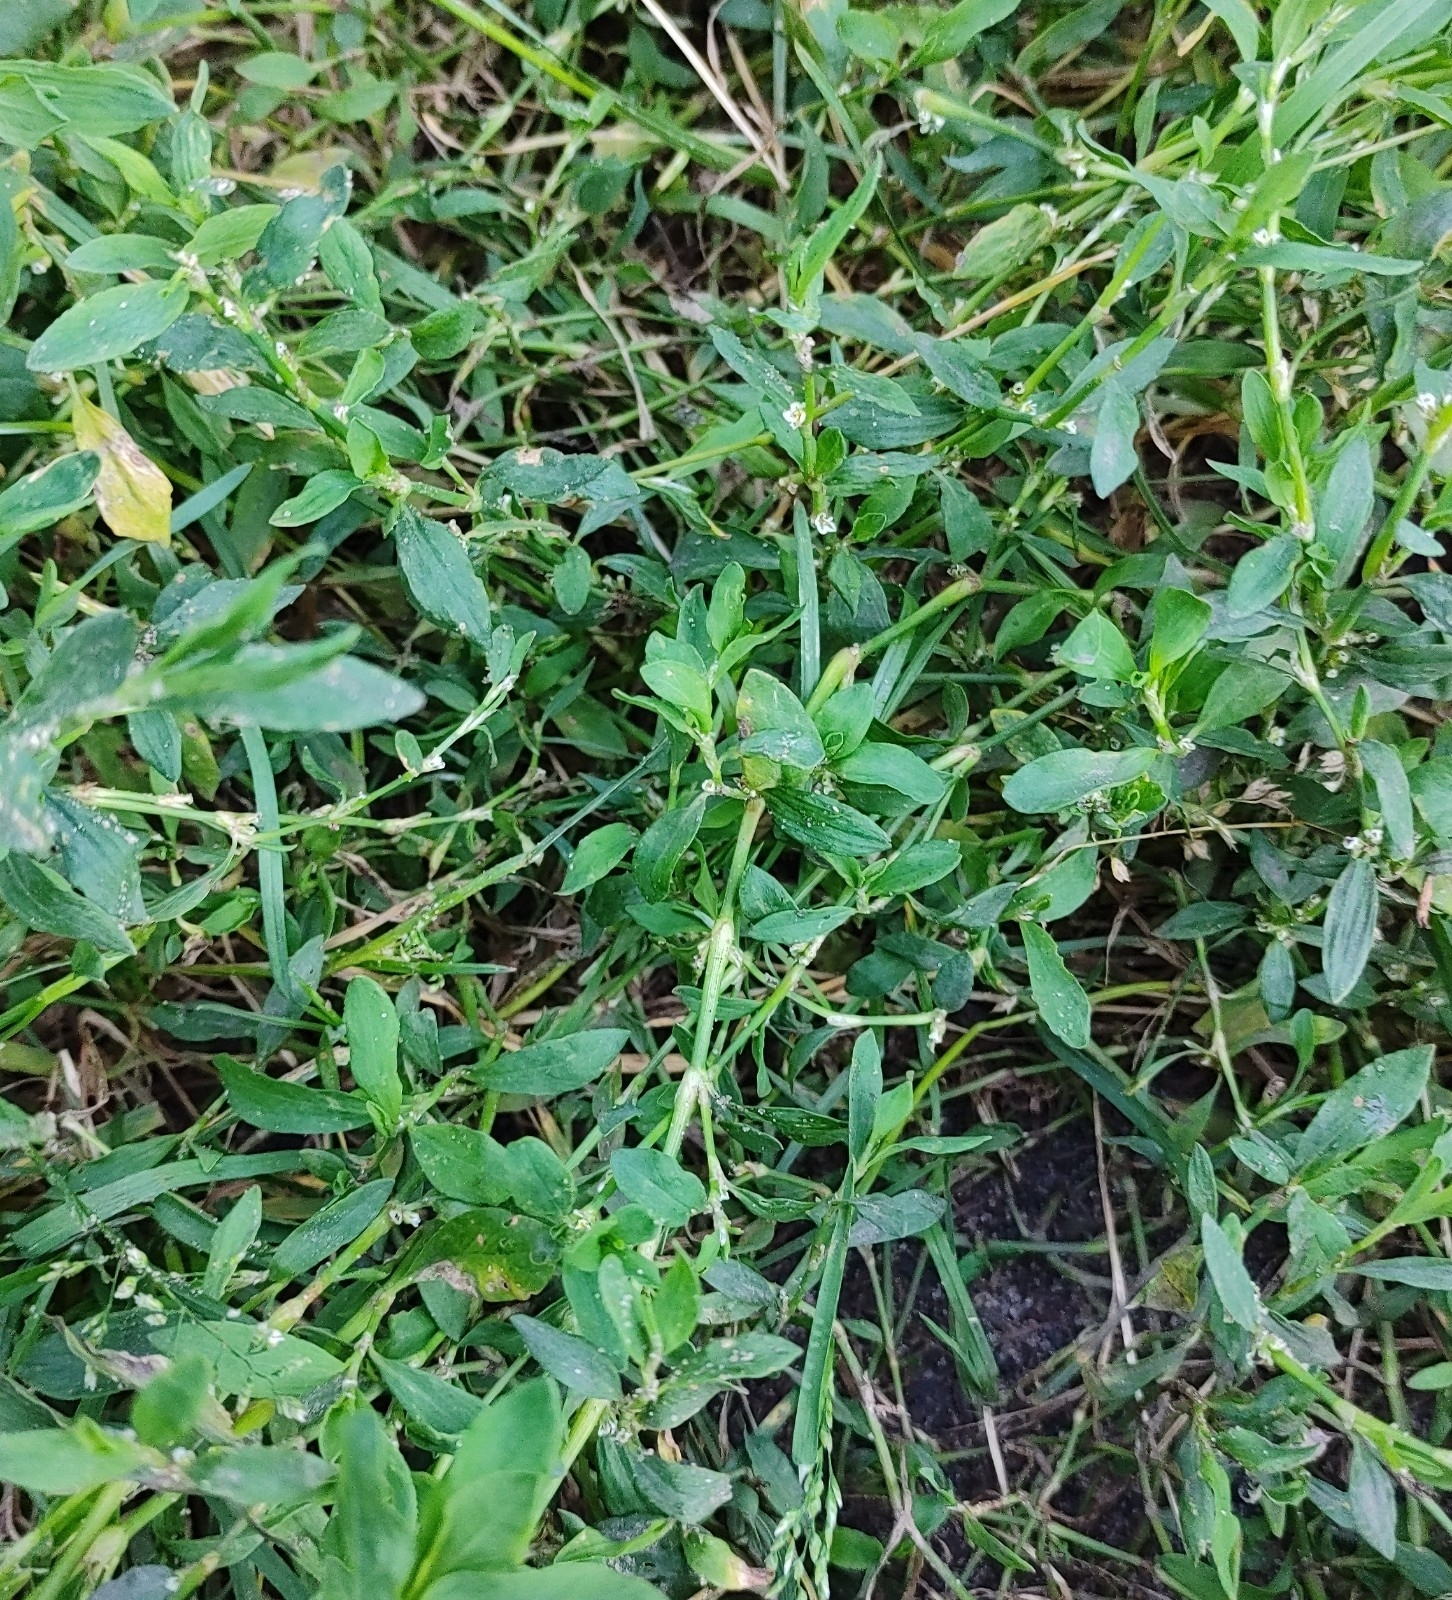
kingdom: Plantae
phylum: Tracheophyta
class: Magnoliopsida
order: Caryophyllales
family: Polygonaceae
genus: Polygonum
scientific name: Polygonum aviculare
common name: Prostrate knotweed
